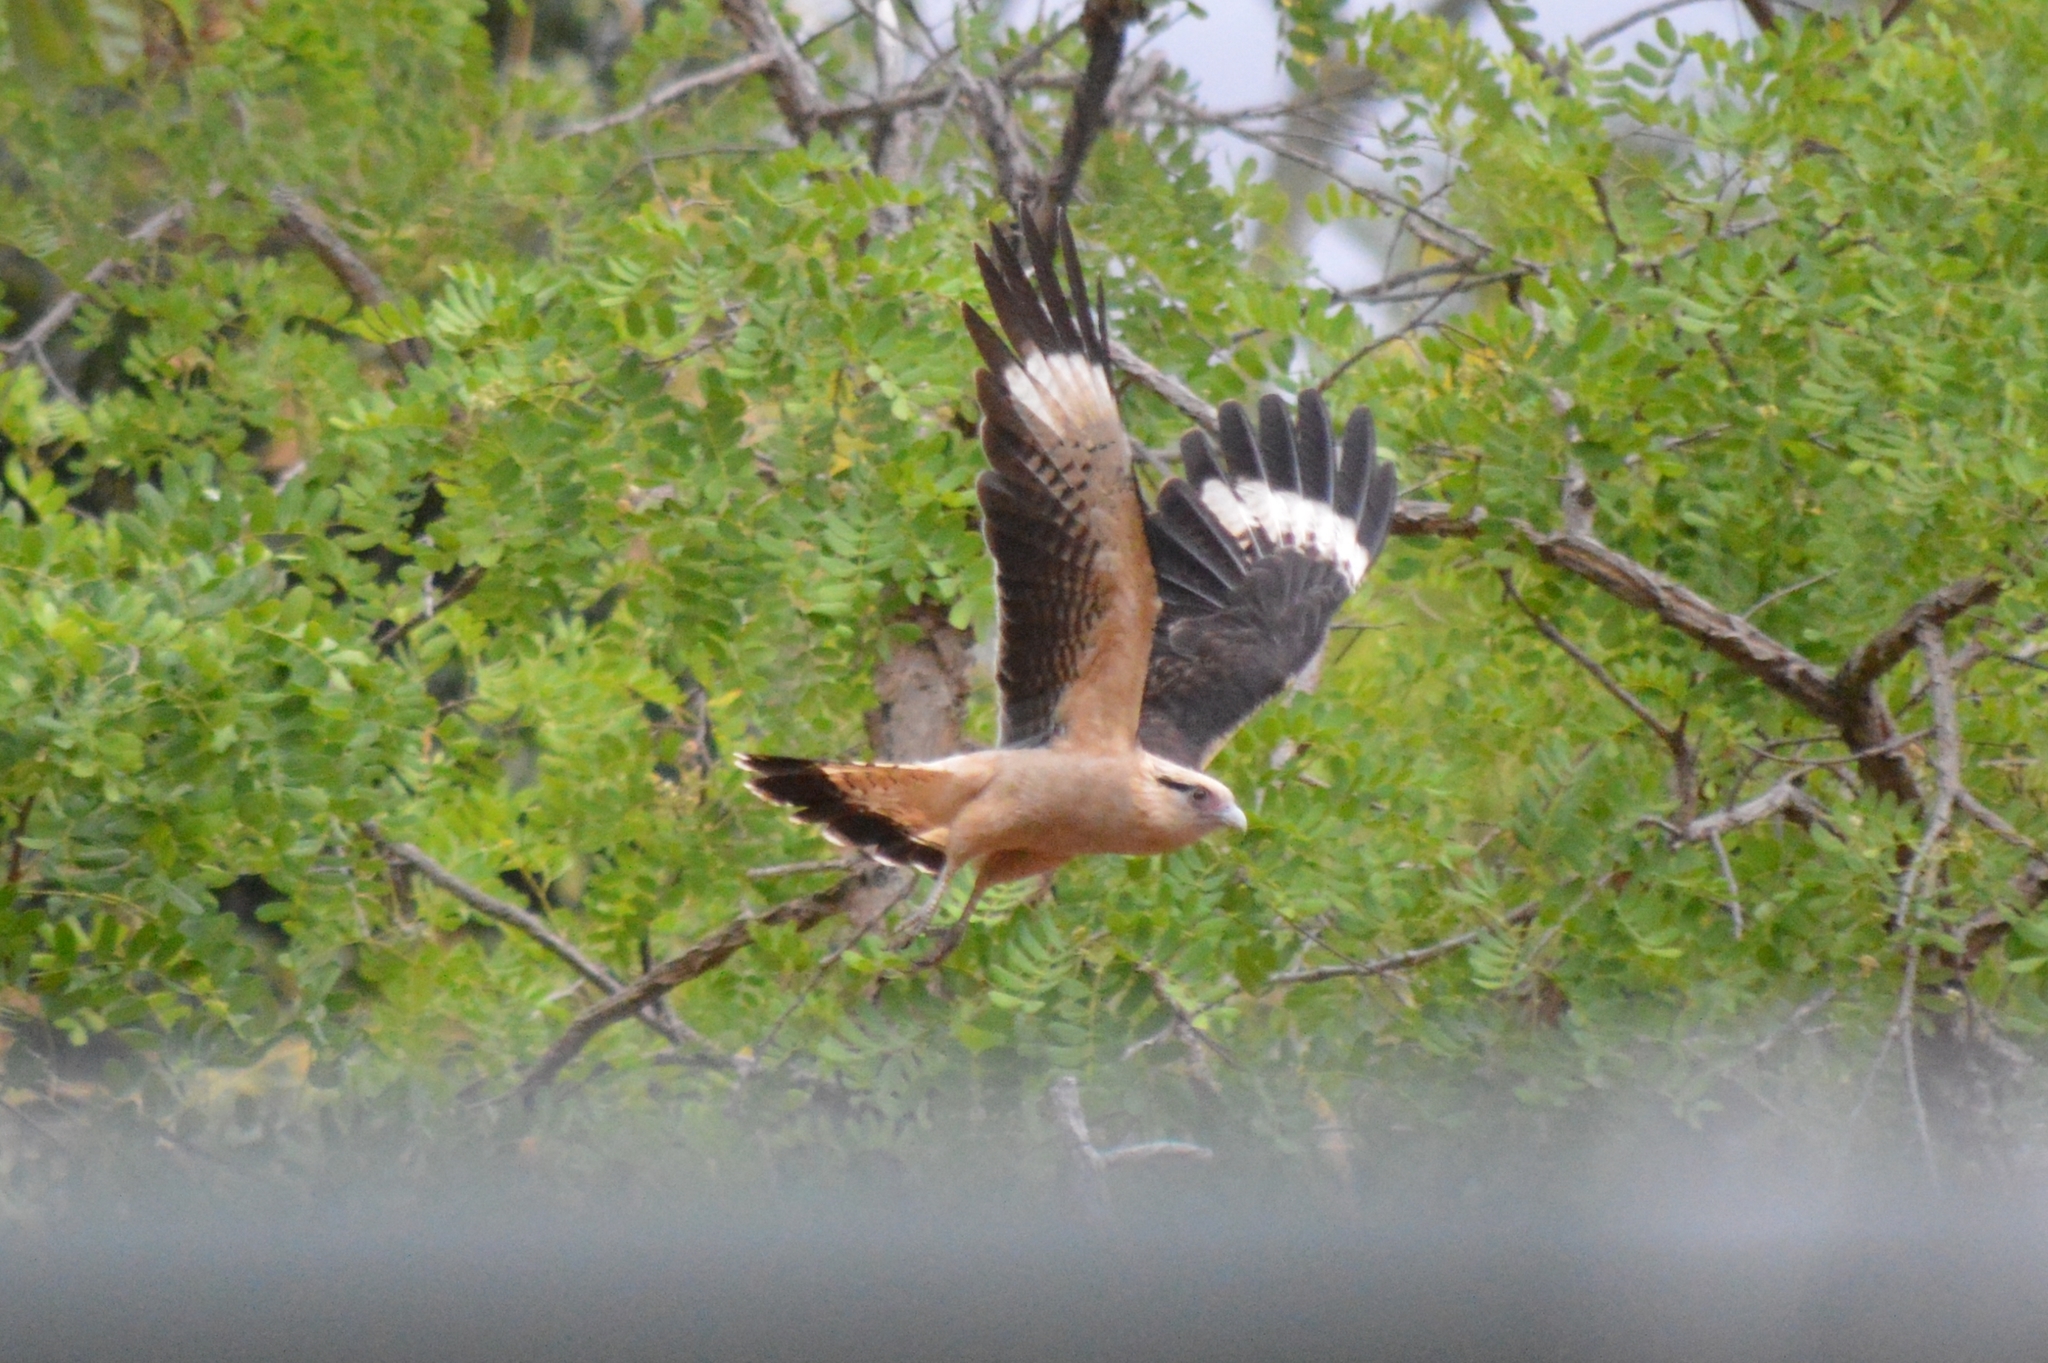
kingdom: Animalia
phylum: Chordata
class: Aves
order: Falconiformes
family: Falconidae
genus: Daptrius
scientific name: Daptrius
